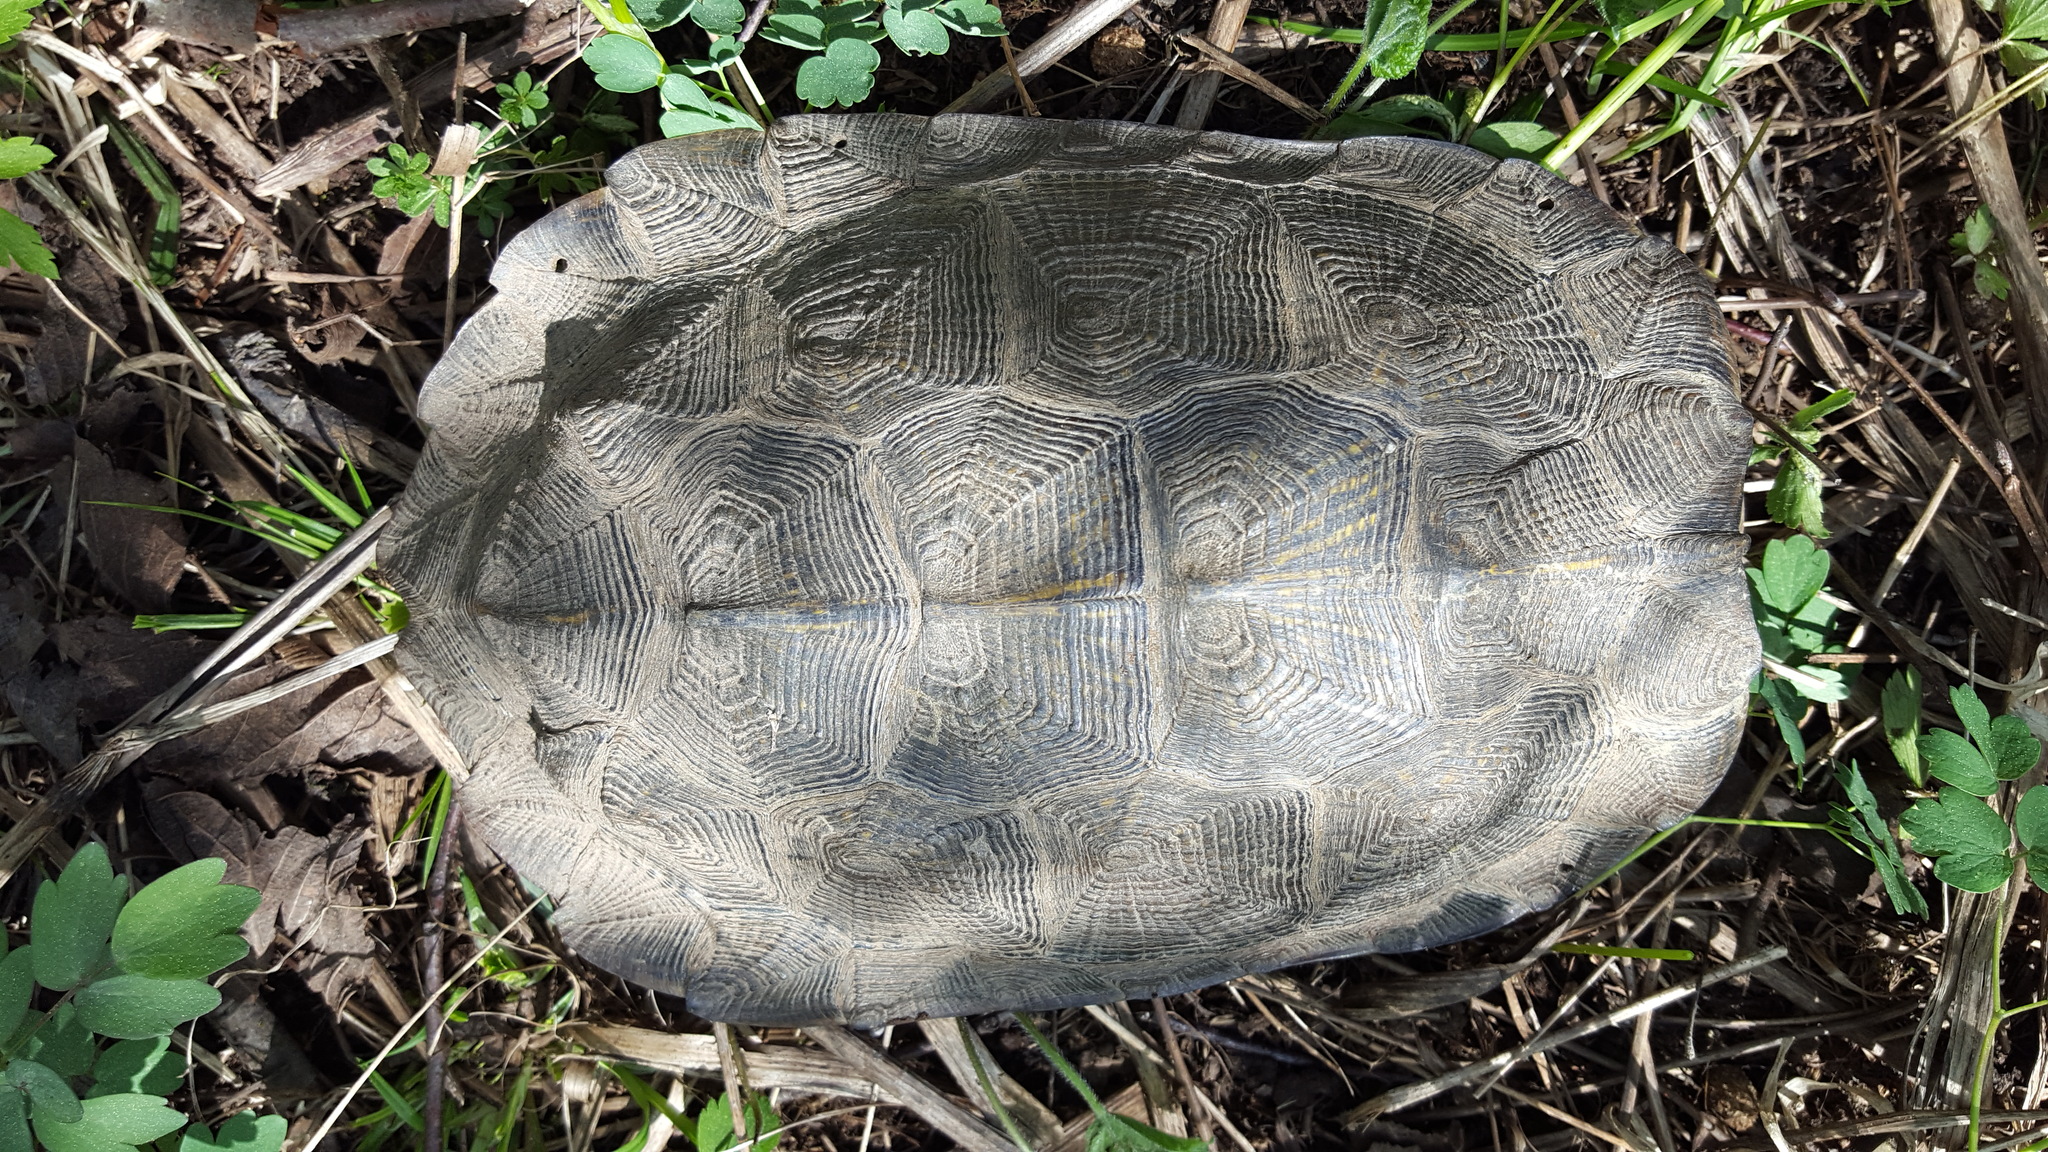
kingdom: Animalia
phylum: Chordata
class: Testudines
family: Emydidae
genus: Glyptemys
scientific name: Glyptemys insculpta
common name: Wood turtle
